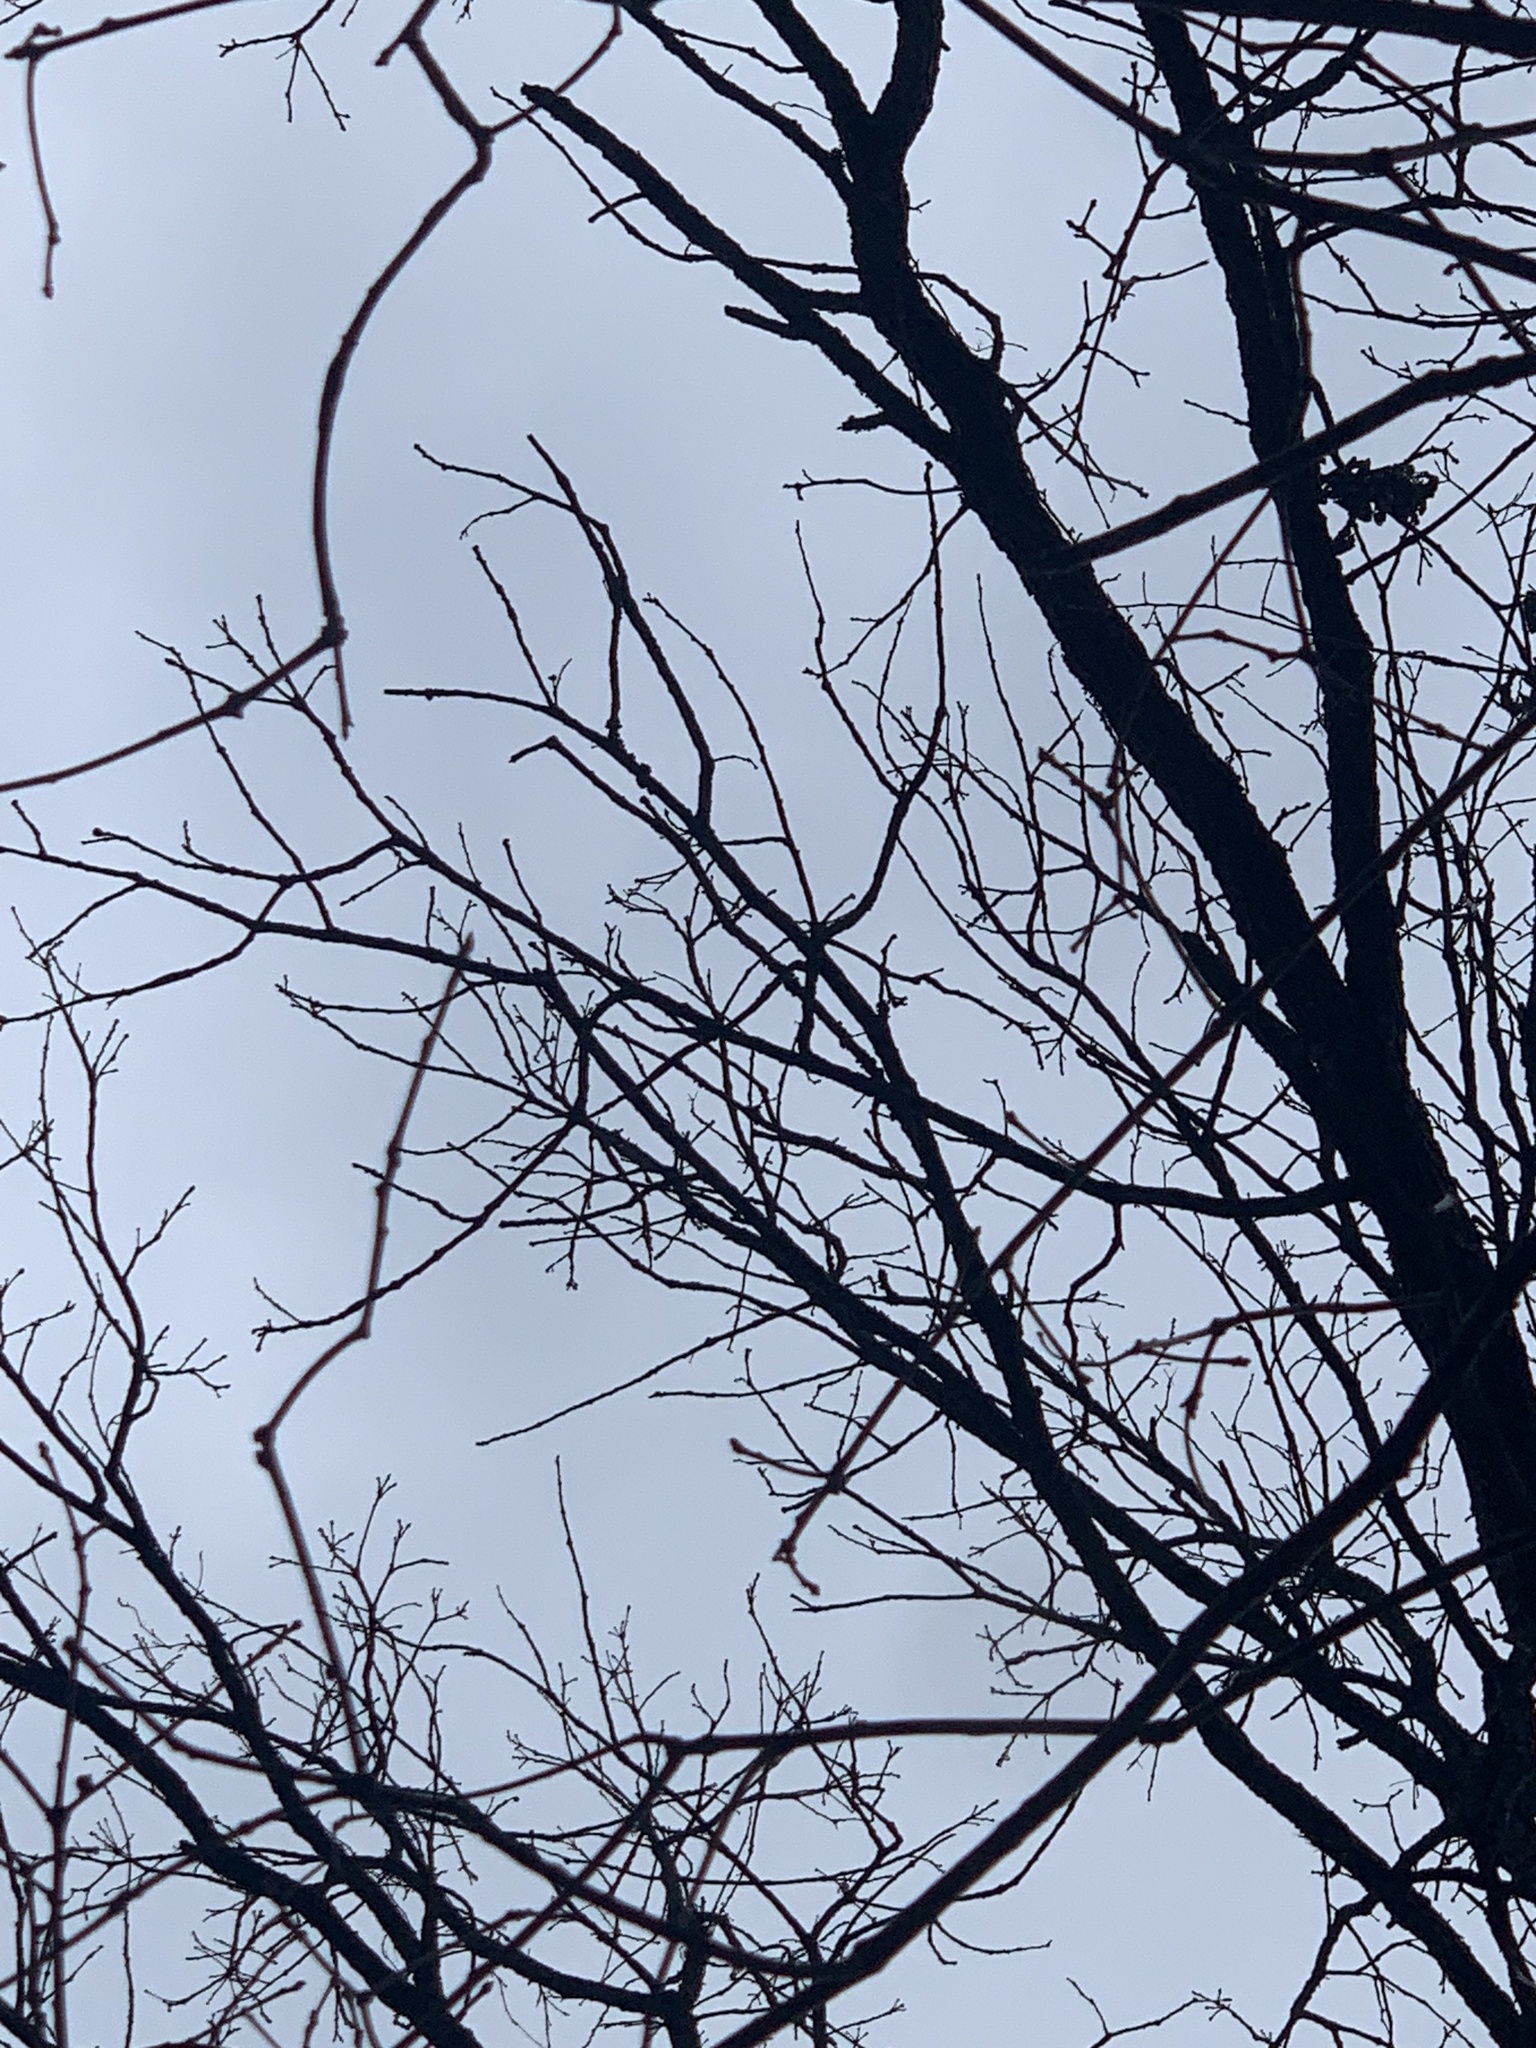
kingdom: Plantae
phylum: Tracheophyta
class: Magnoliopsida
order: Fagales
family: Fagaceae
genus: Quercus
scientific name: Quercus macrocarpa
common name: Bur oak
